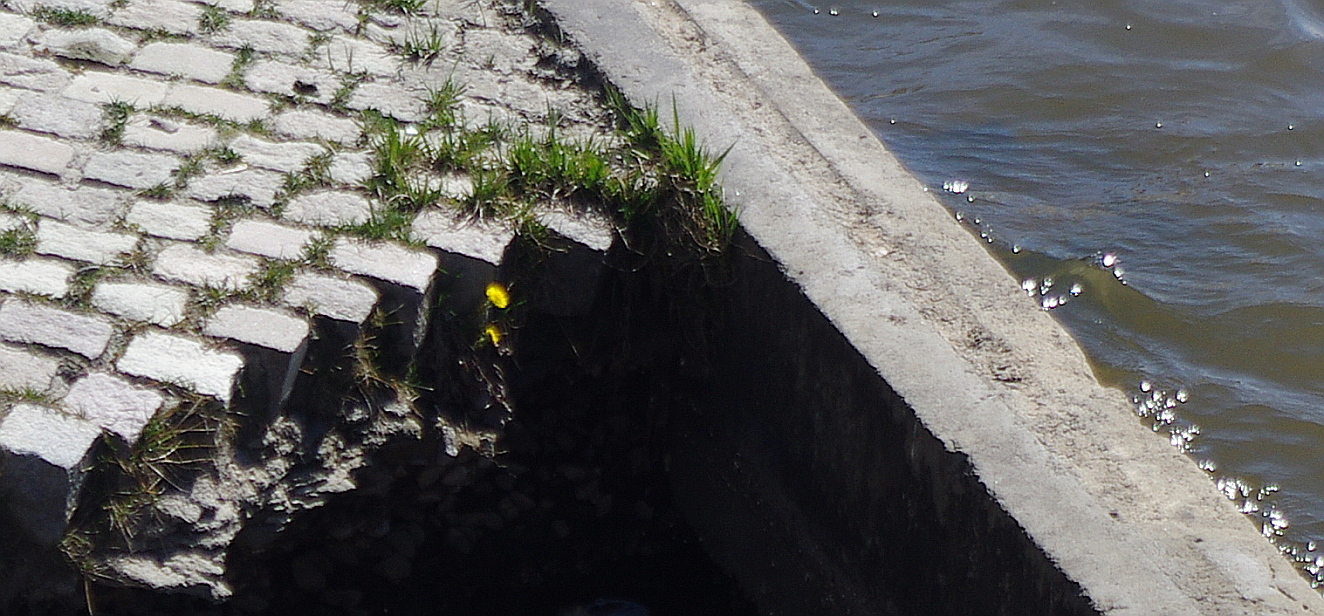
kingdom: Plantae
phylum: Tracheophyta
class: Magnoliopsida
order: Asterales
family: Asteraceae
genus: Tussilago
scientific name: Tussilago farfara
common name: Coltsfoot
